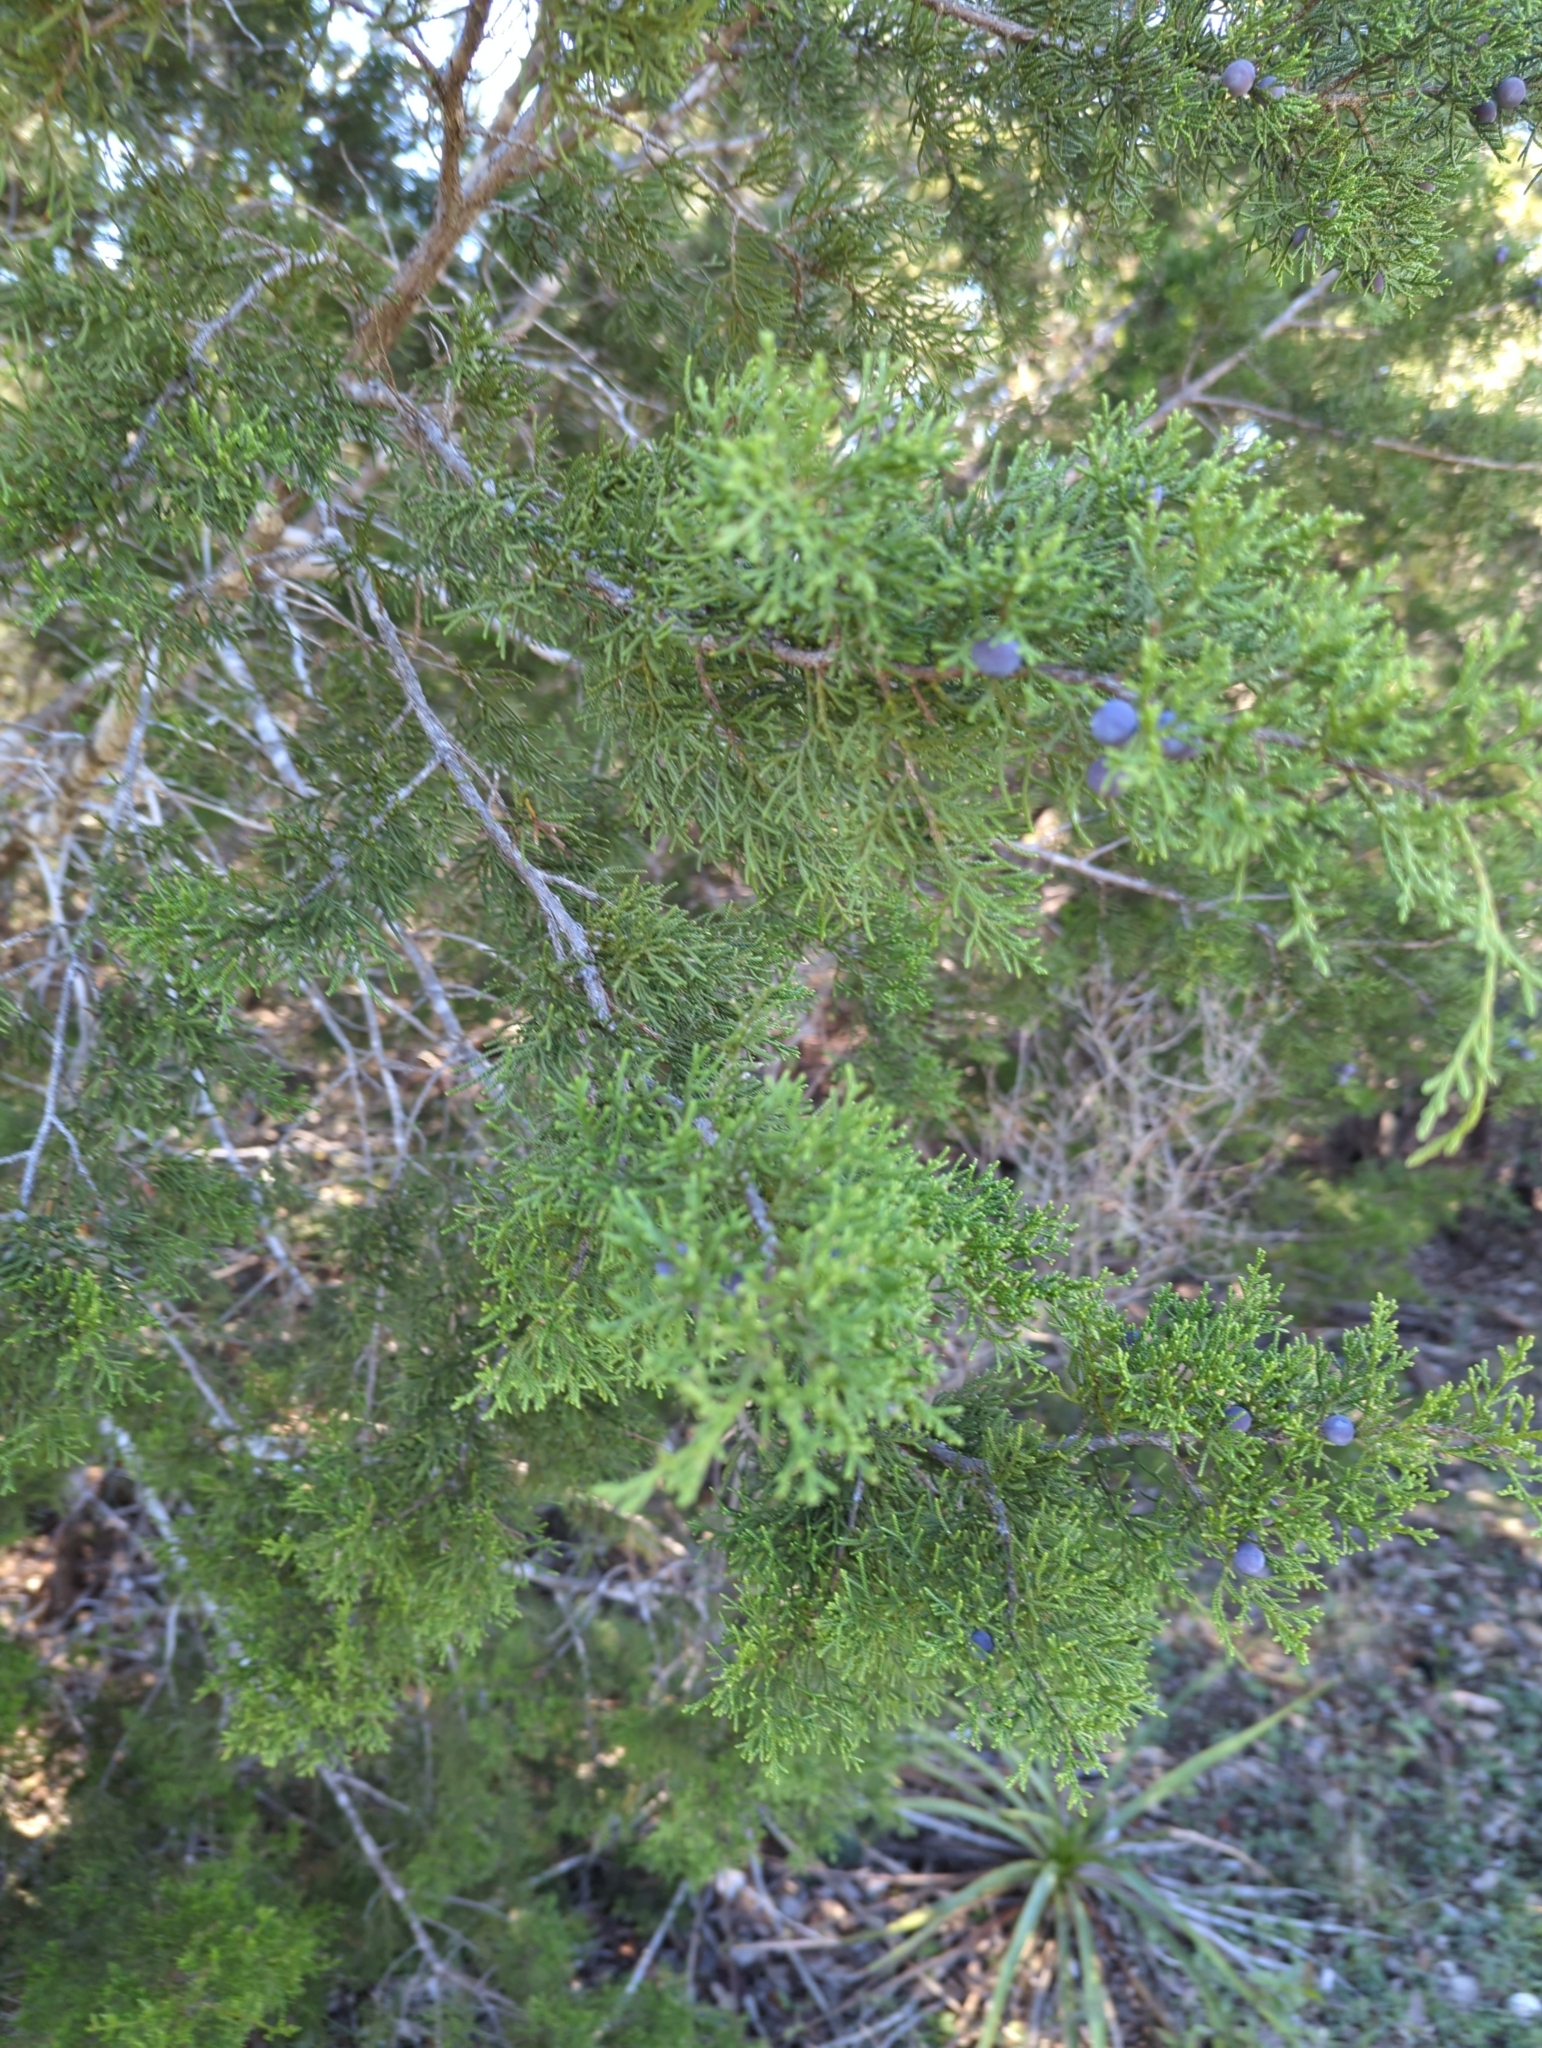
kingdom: Plantae
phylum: Tracheophyta
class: Pinopsida
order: Pinales
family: Cupressaceae
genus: Juniperus
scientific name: Juniperus ashei
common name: Mexican juniper
